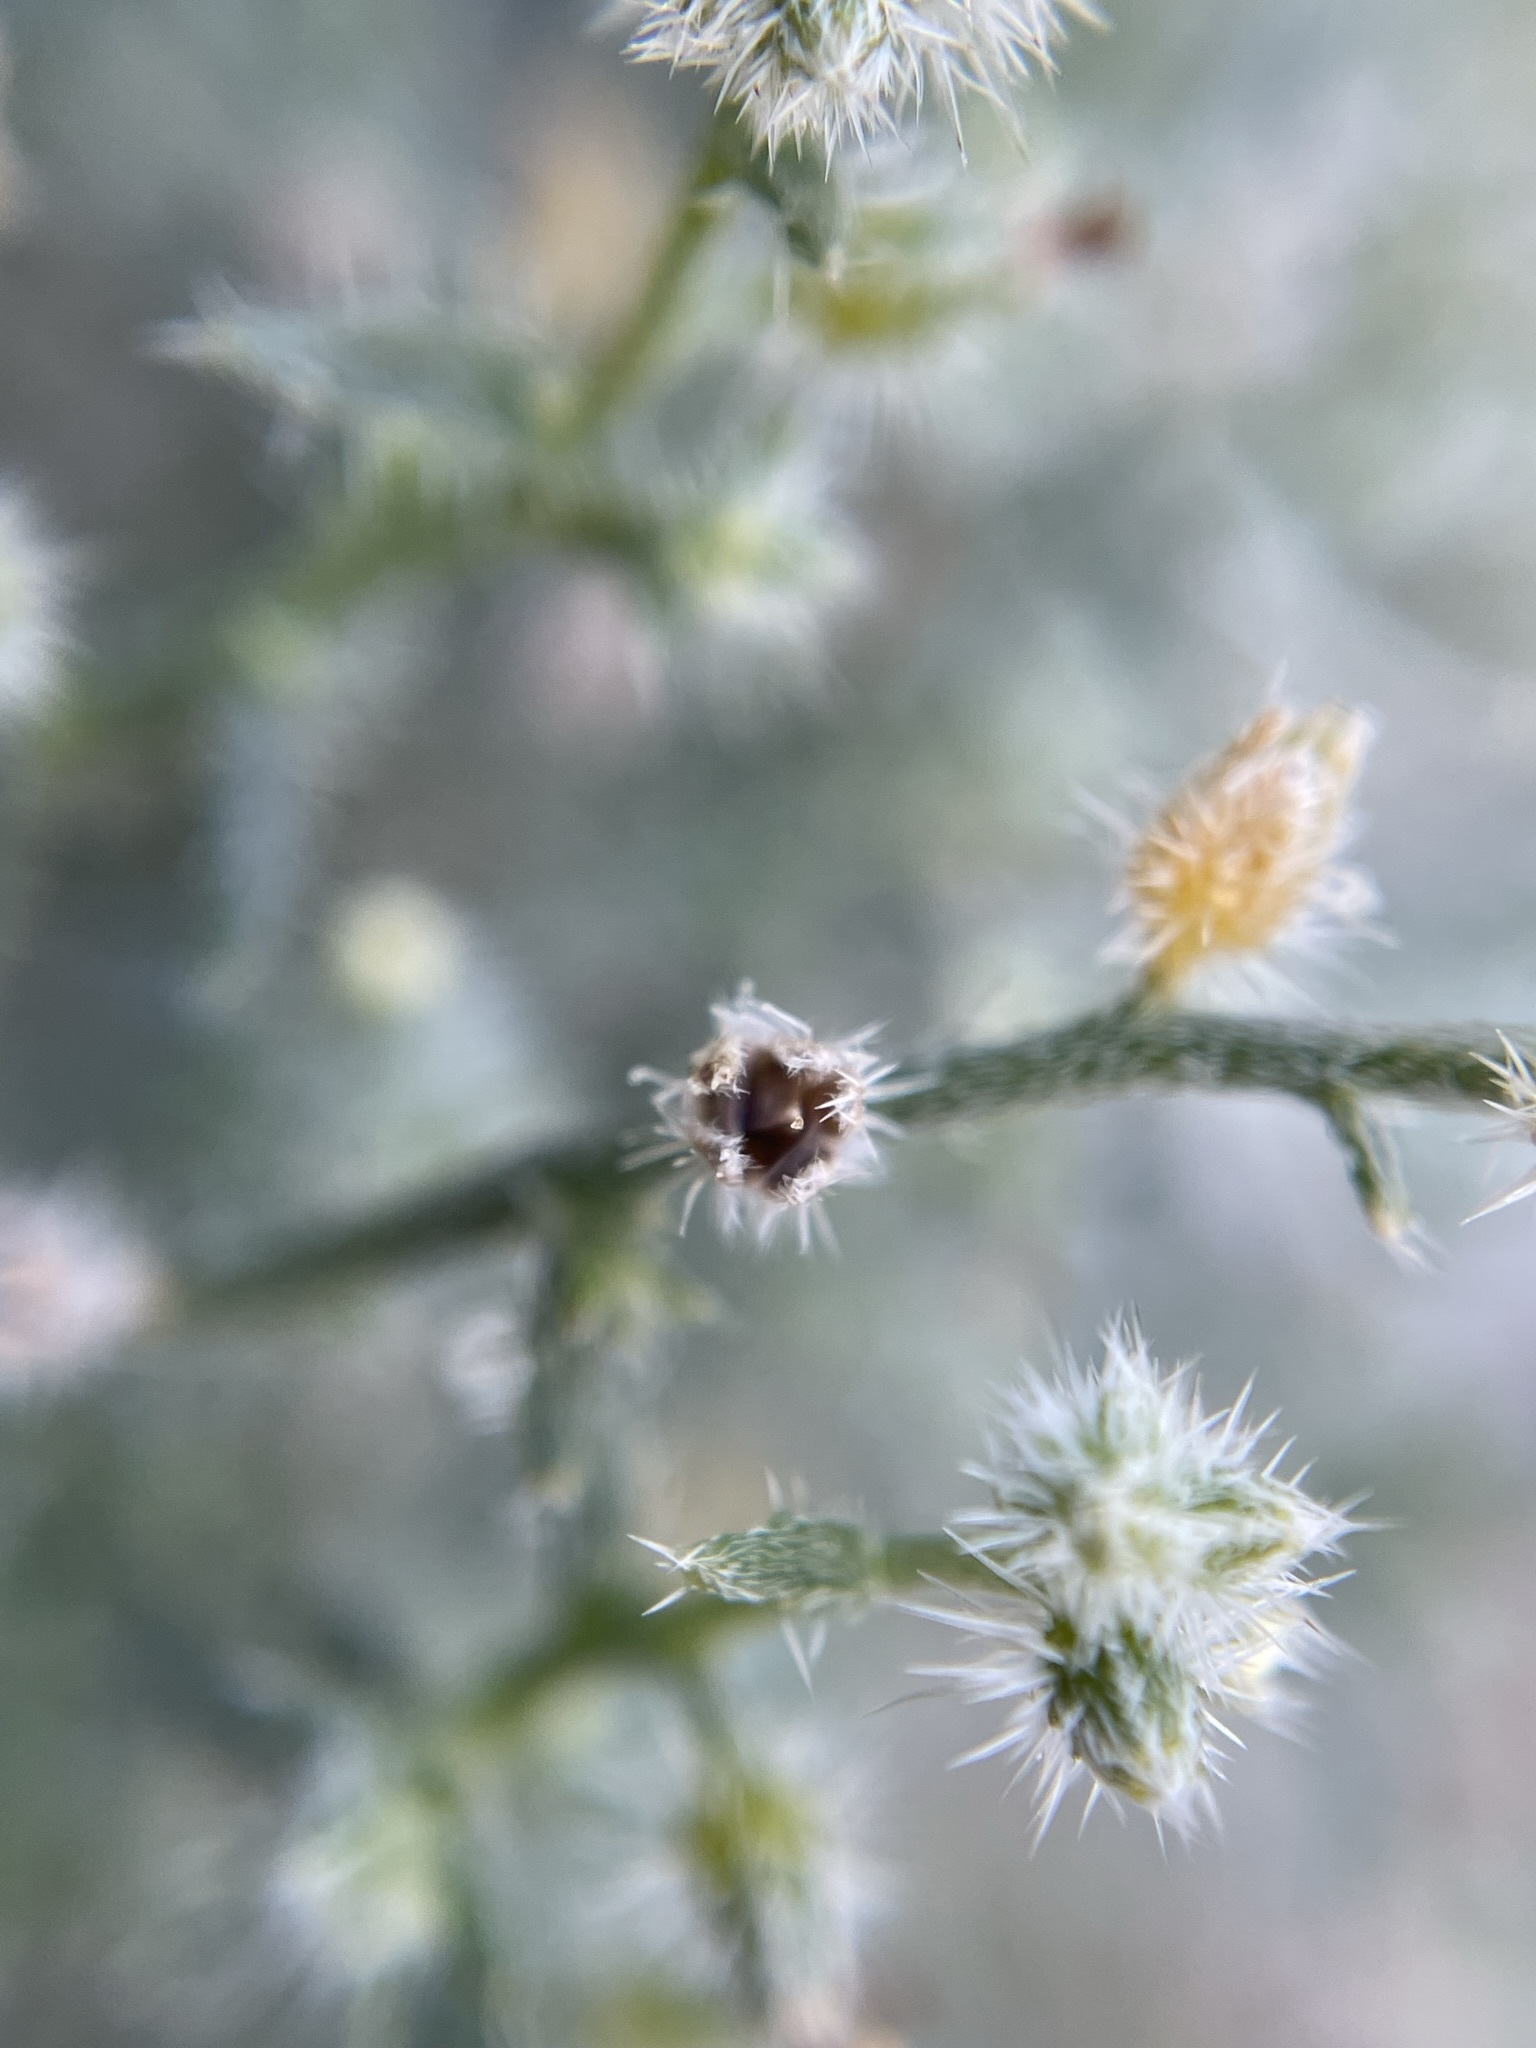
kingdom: Plantae
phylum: Tracheophyta
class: Magnoliopsida
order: Boraginales
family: Boraginaceae
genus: Johnstonella
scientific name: Johnstonella racemosa
